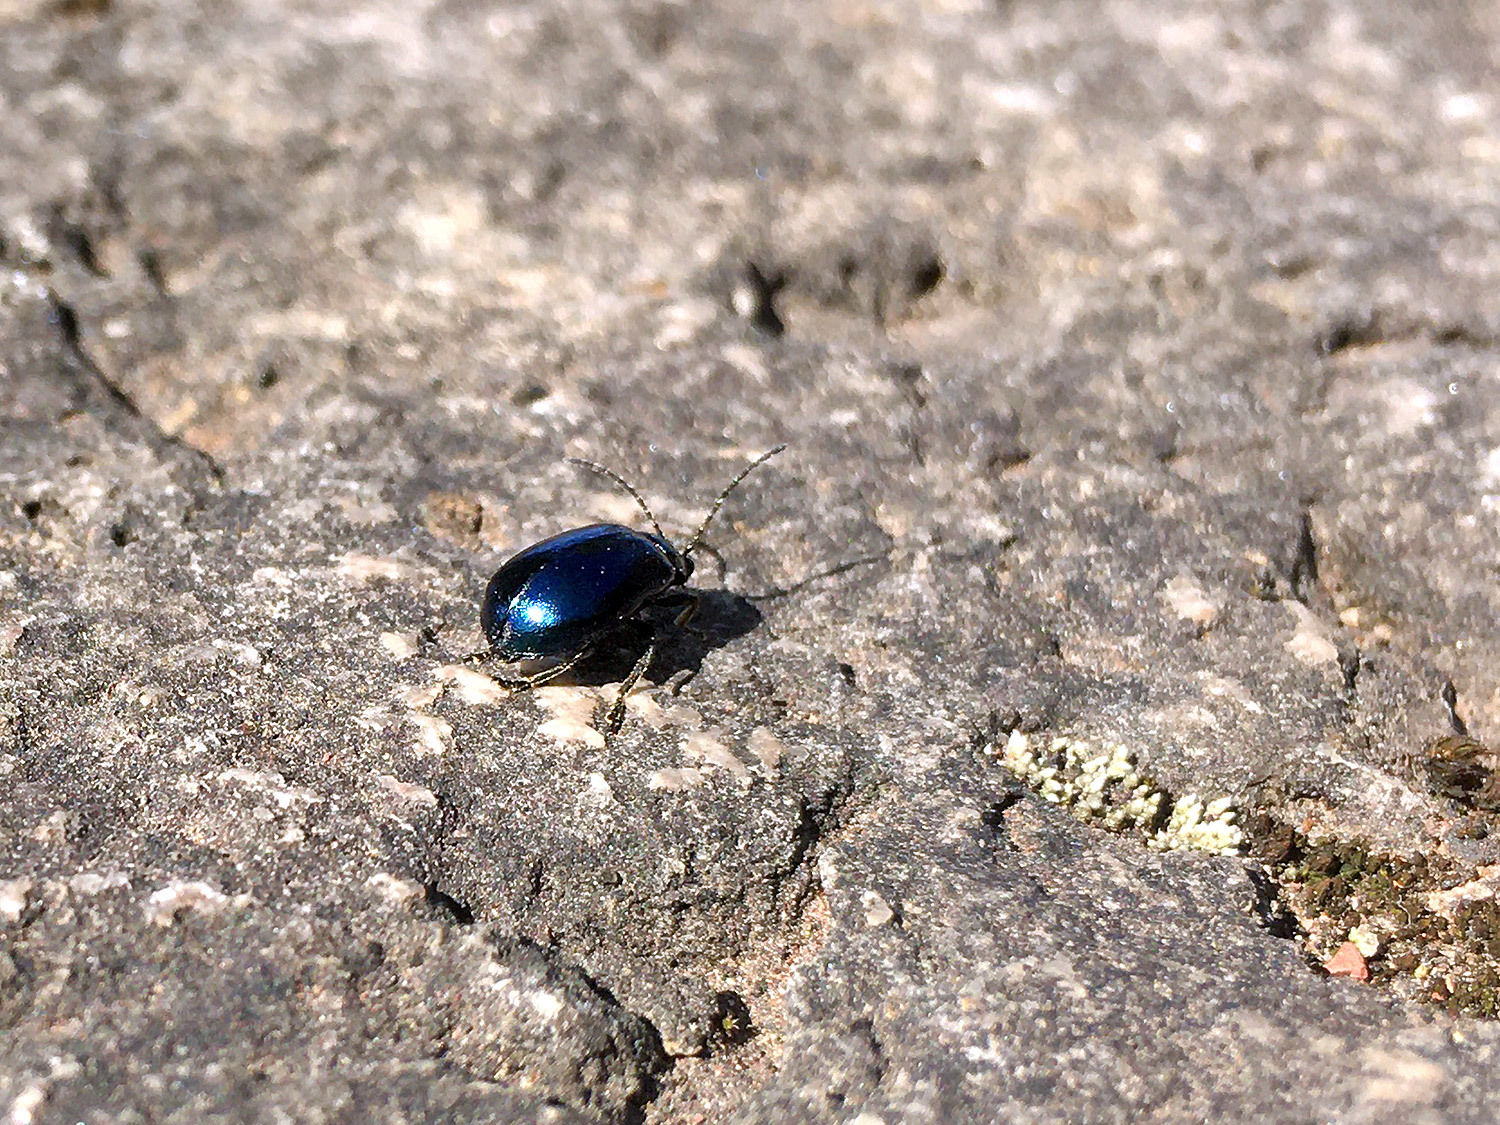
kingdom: Animalia
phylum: Arthropoda
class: Insecta
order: Coleoptera
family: Chrysomelidae
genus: Agelastica
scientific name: Agelastica alni
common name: Alder leaf beetle
